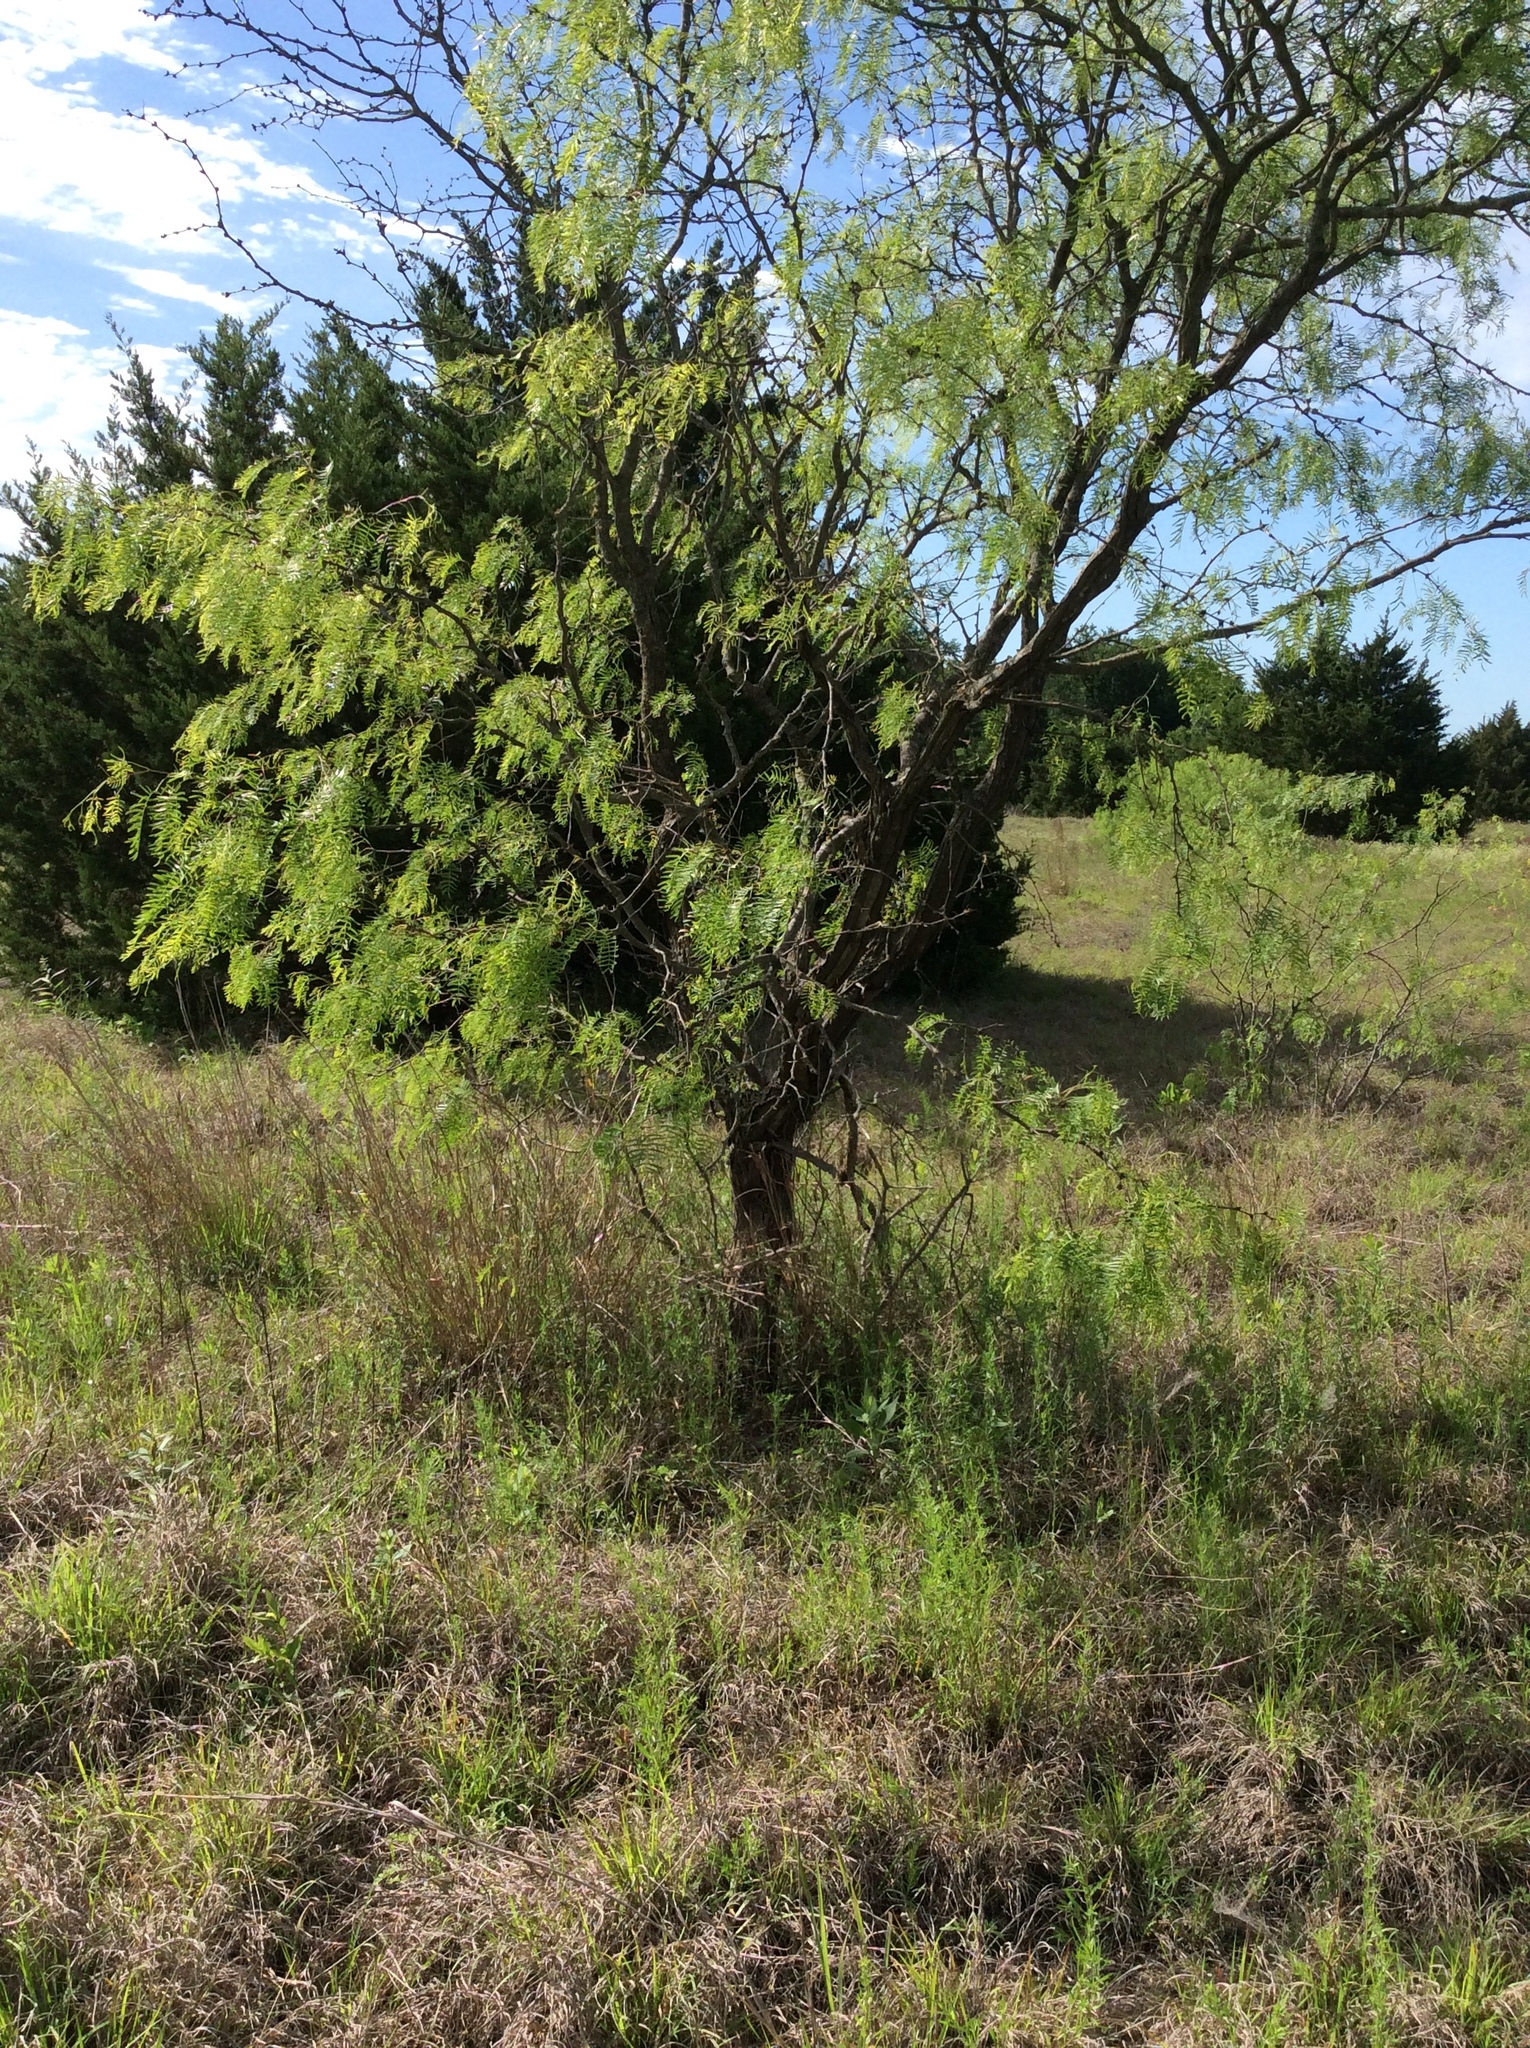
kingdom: Plantae
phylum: Tracheophyta
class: Magnoliopsida
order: Fabales
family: Fabaceae
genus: Prosopis
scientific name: Prosopis glandulosa
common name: Honey mesquite
